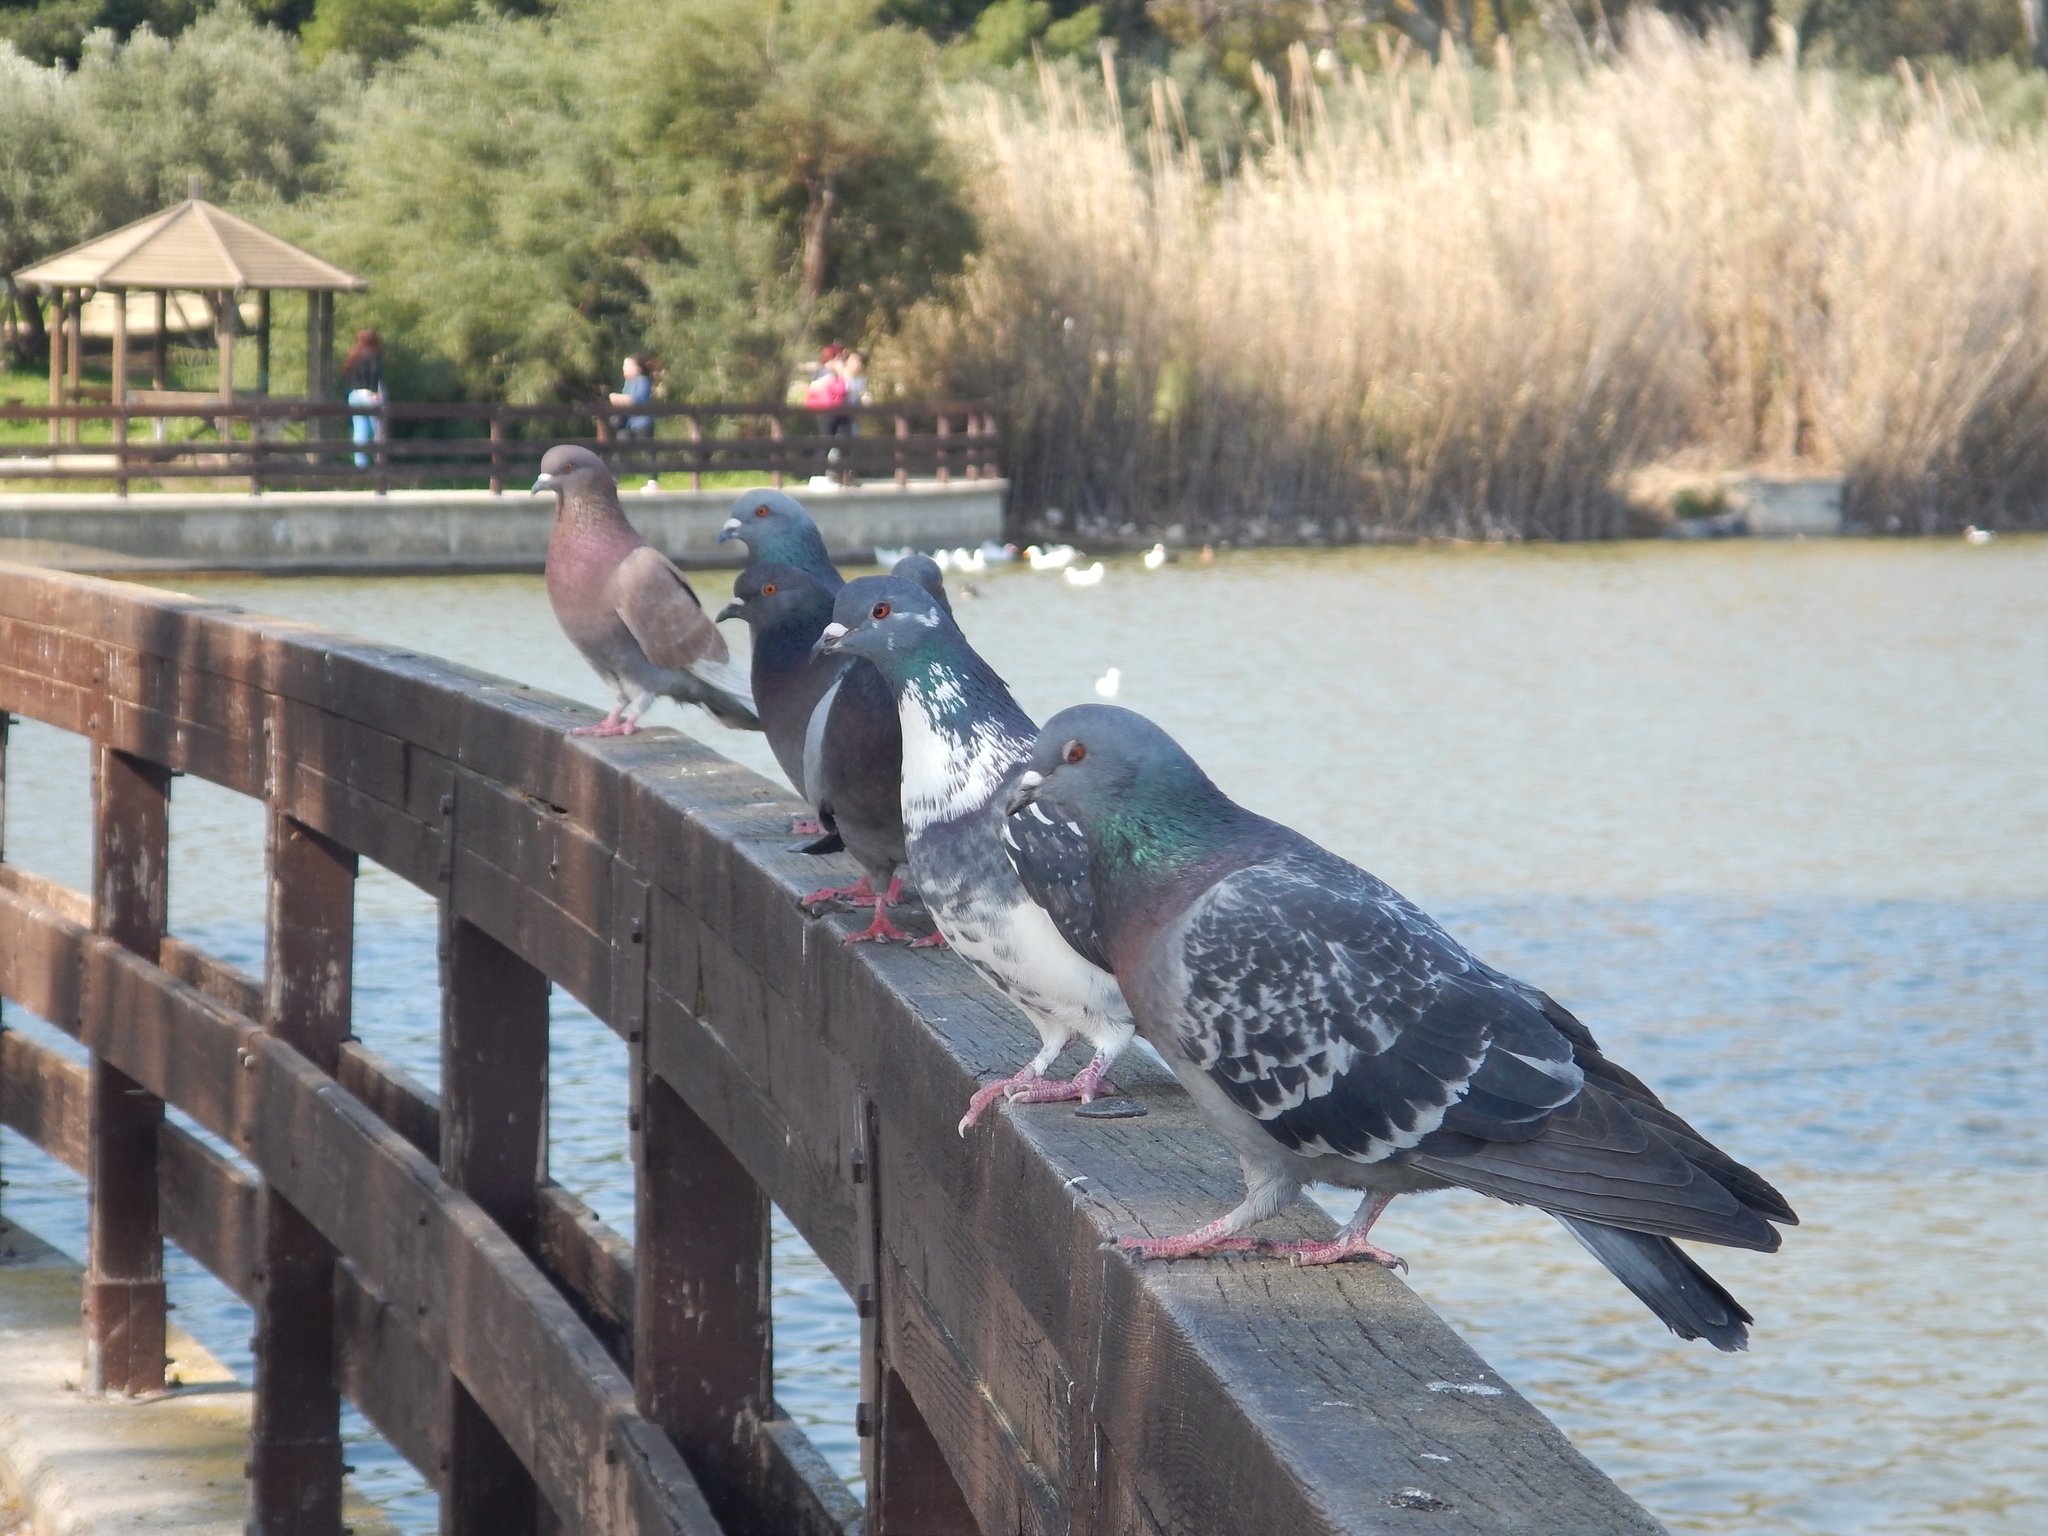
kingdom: Animalia
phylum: Chordata
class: Aves
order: Columbiformes
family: Columbidae
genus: Columba
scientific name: Columba livia
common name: Rock pigeon
